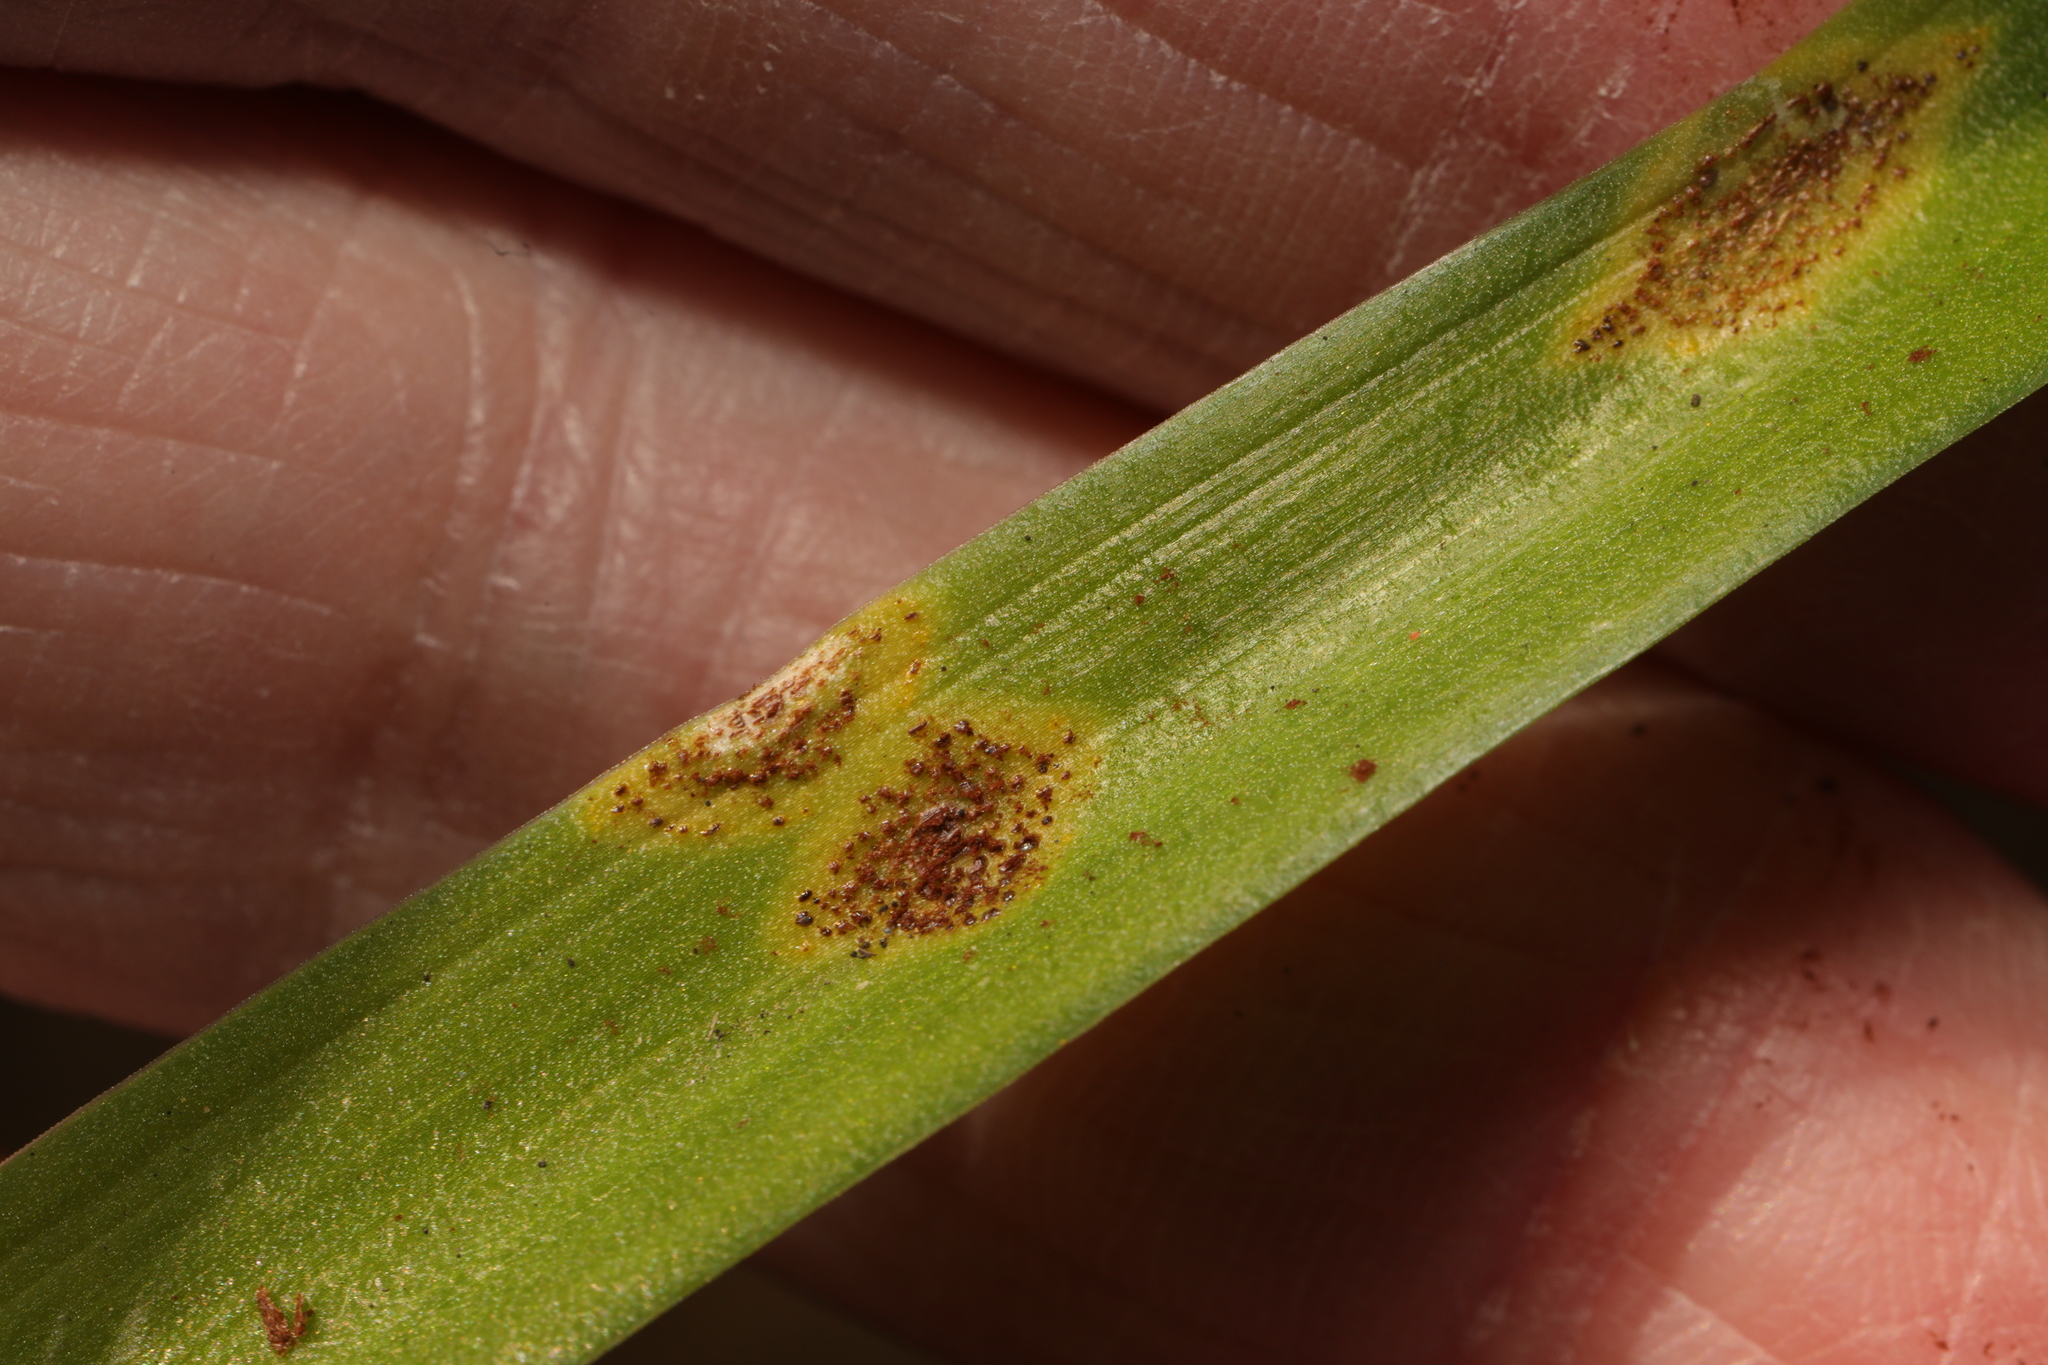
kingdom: Fungi
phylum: Basidiomycota
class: Pucciniomycetes
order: Pucciniales
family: Pucciniaceae
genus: Uromyces
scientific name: Uromyces hyacinthi
